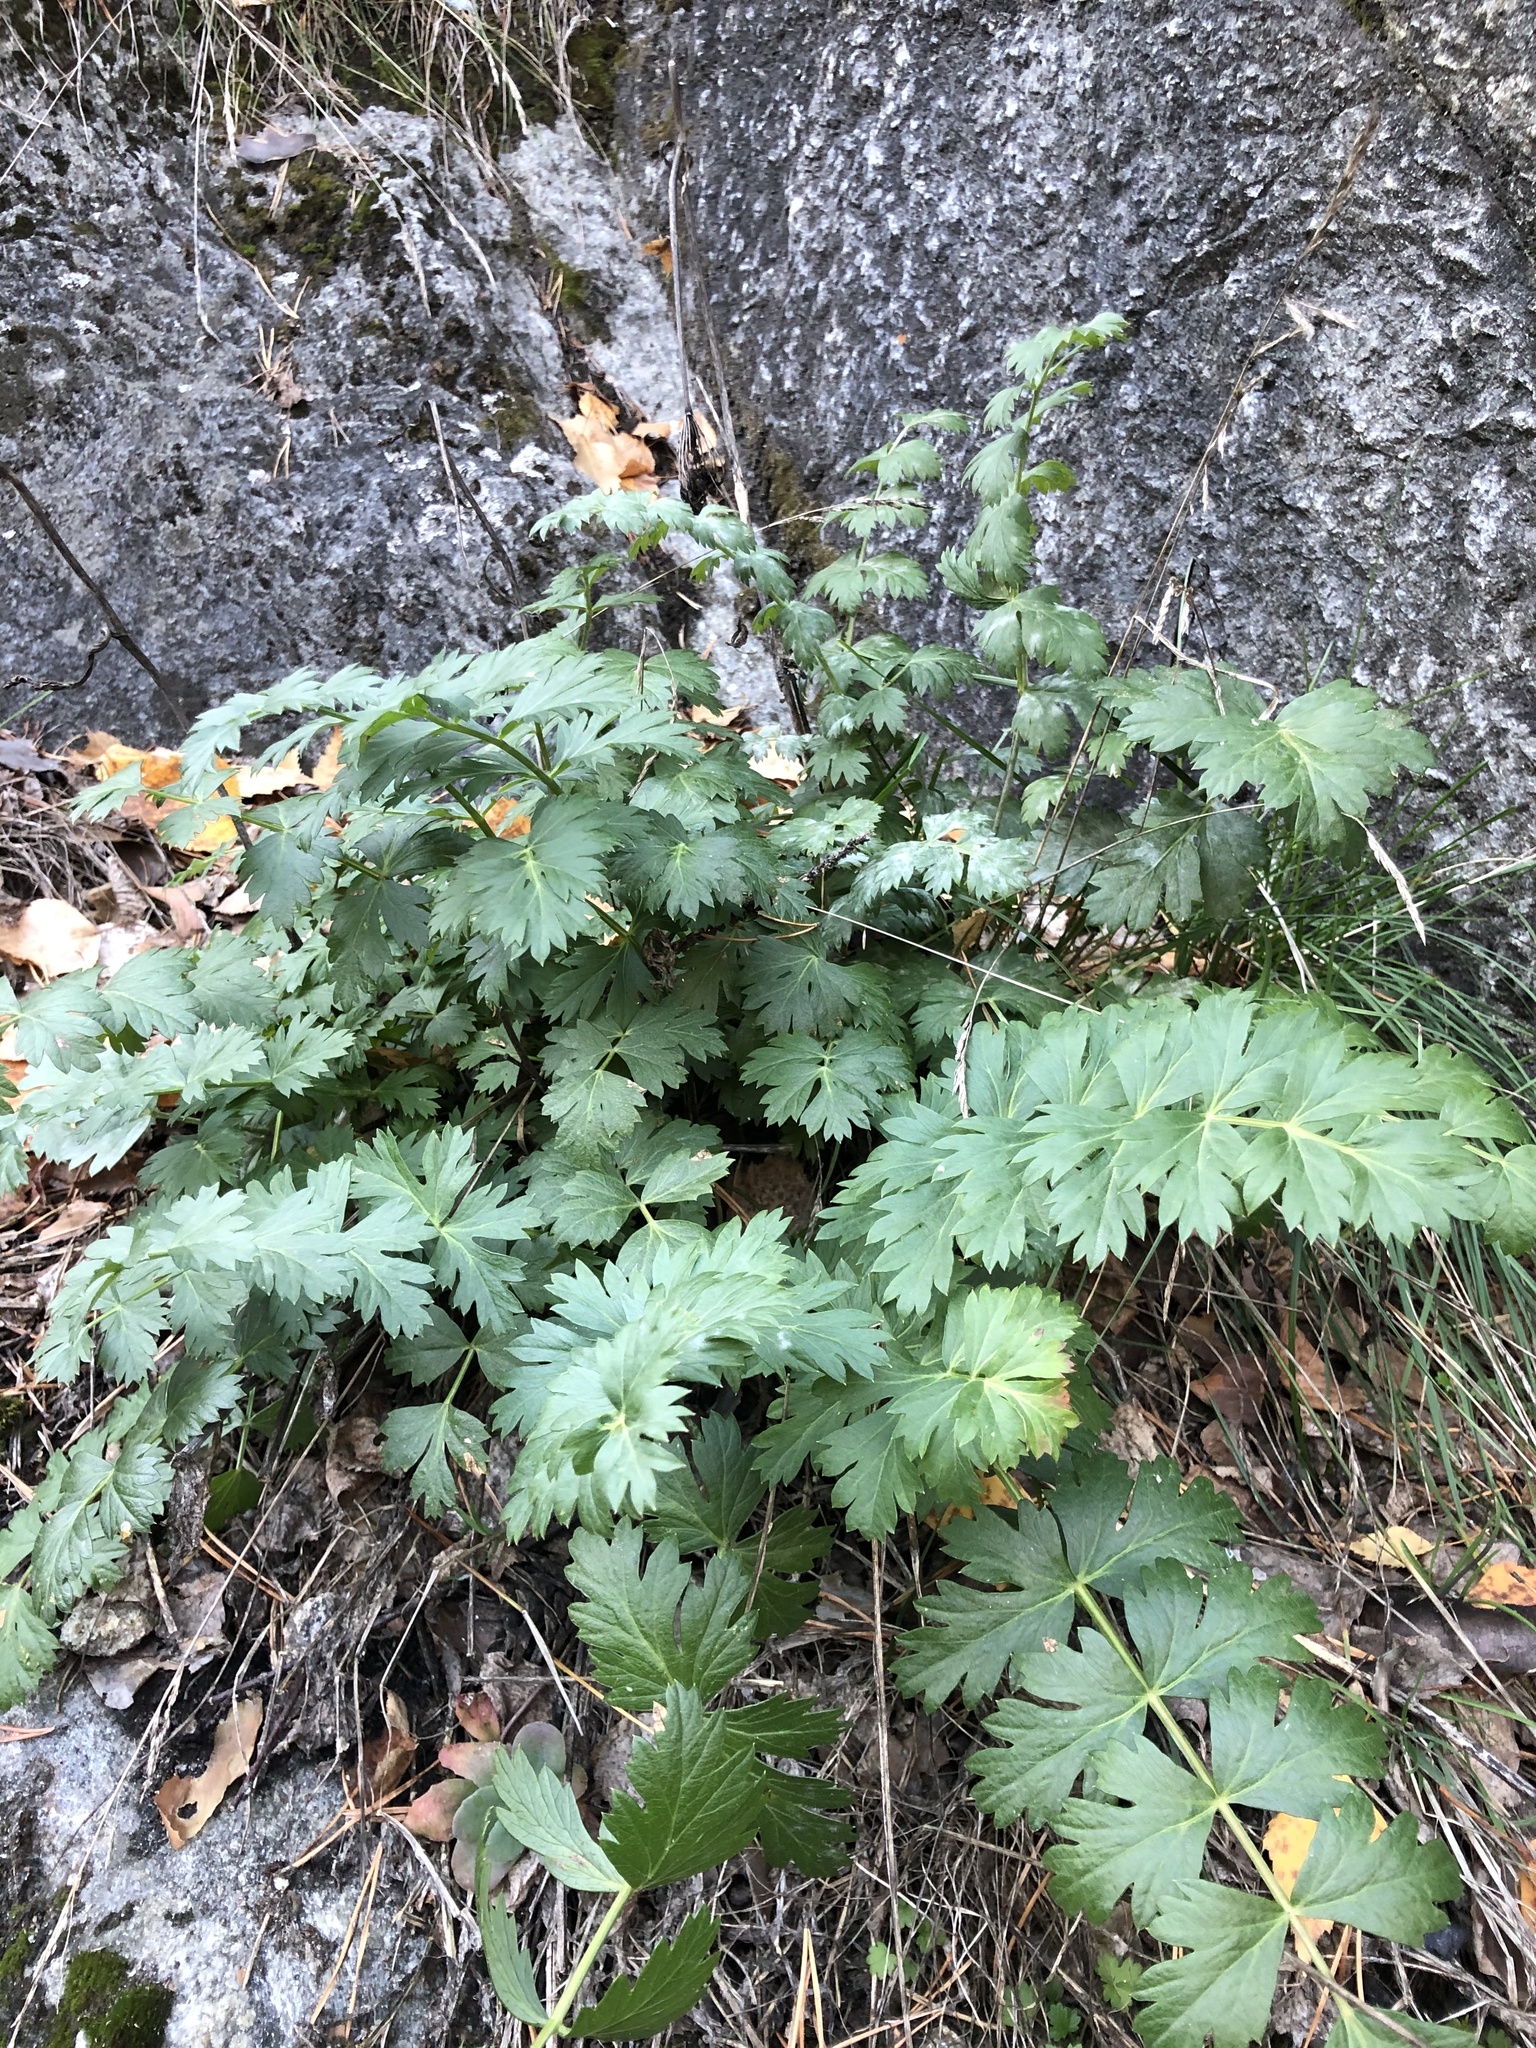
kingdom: Plantae
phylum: Tracheophyta
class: Magnoliopsida
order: Apiales
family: Apiaceae
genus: Seseli
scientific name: Seseli krylovii
